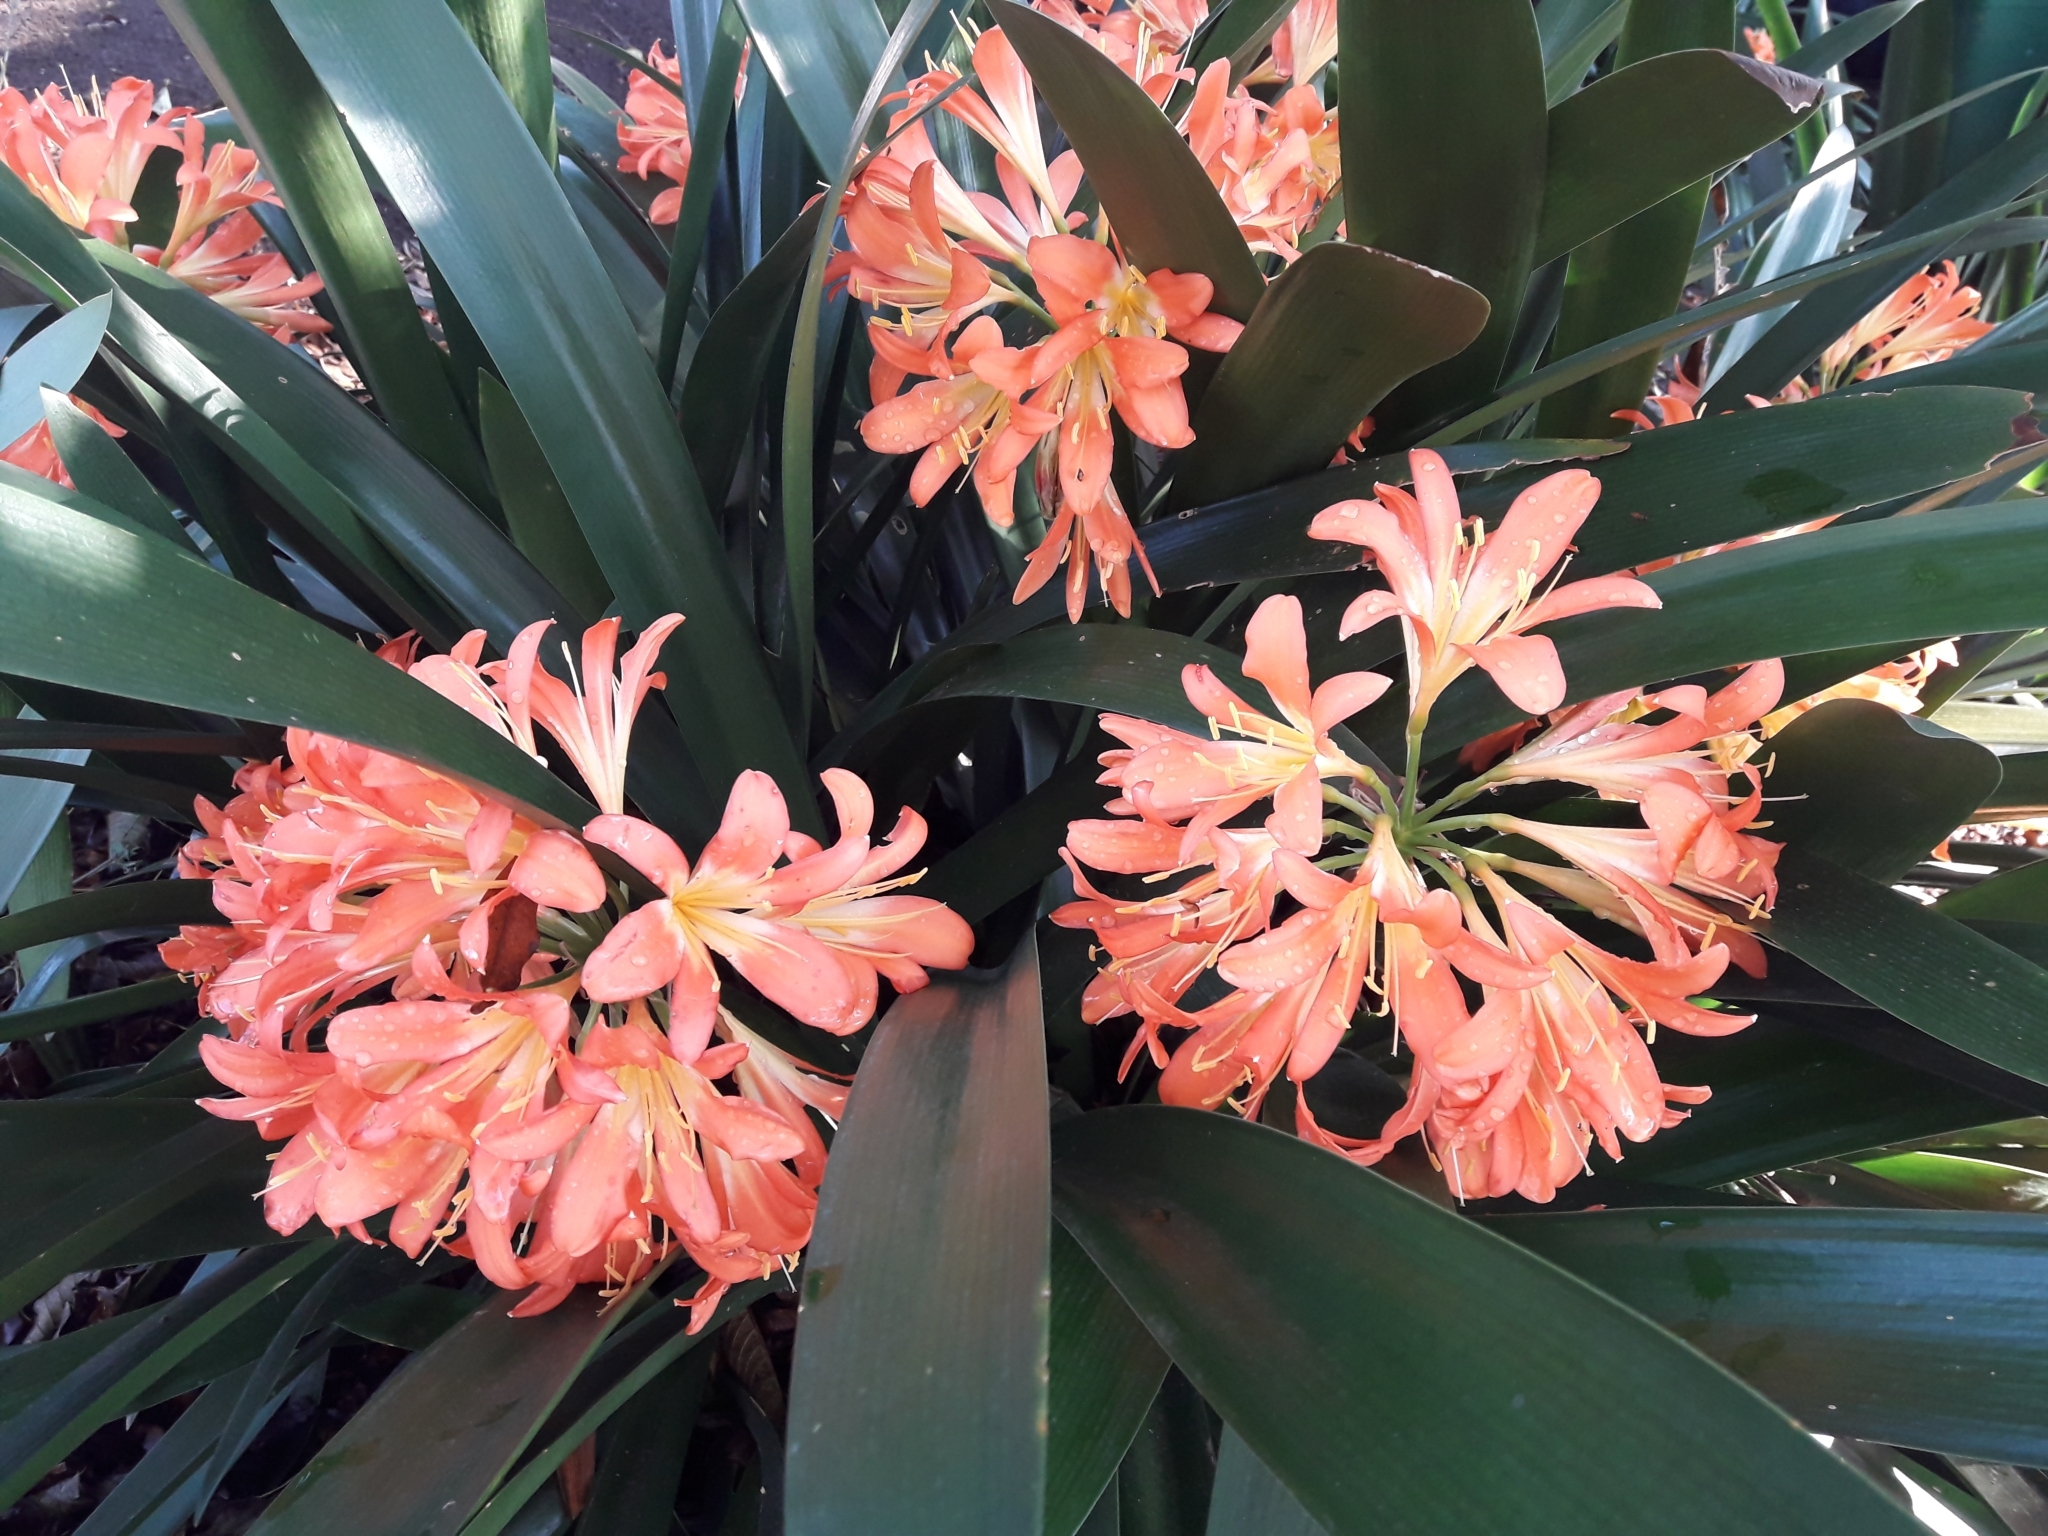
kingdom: Plantae
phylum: Tracheophyta
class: Liliopsida
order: Asparagales
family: Amaryllidaceae
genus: Clivia
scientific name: Clivia miniata
